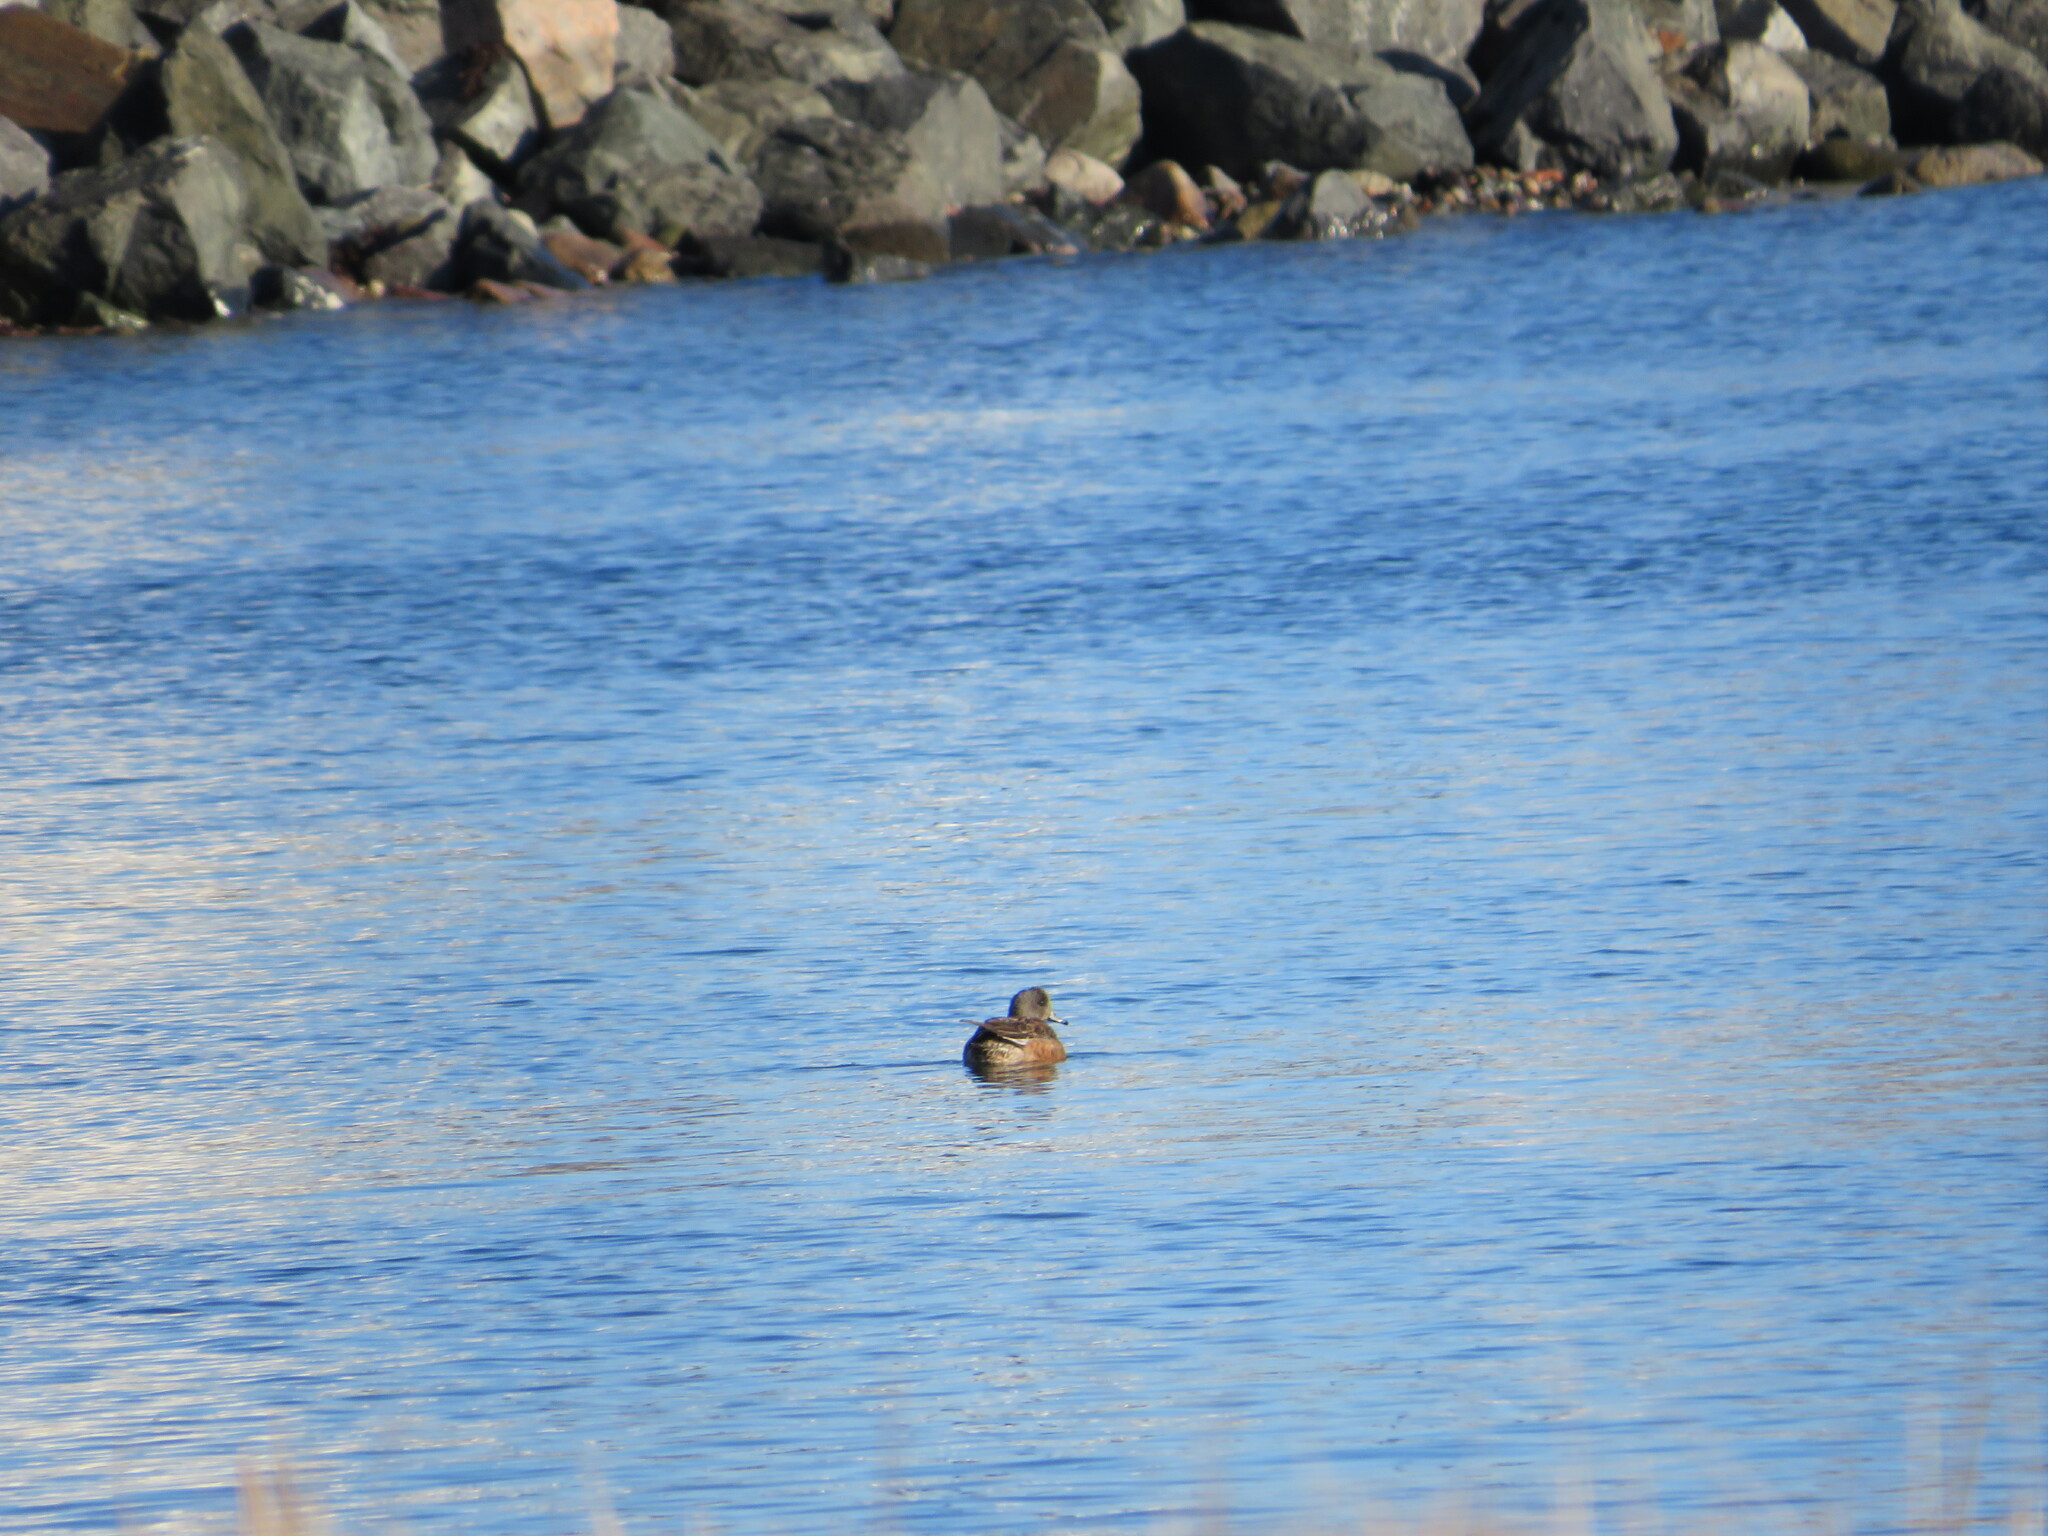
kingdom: Animalia
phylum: Chordata
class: Aves
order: Anseriformes
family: Anatidae
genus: Mareca
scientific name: Mareca americana
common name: American wigeon
